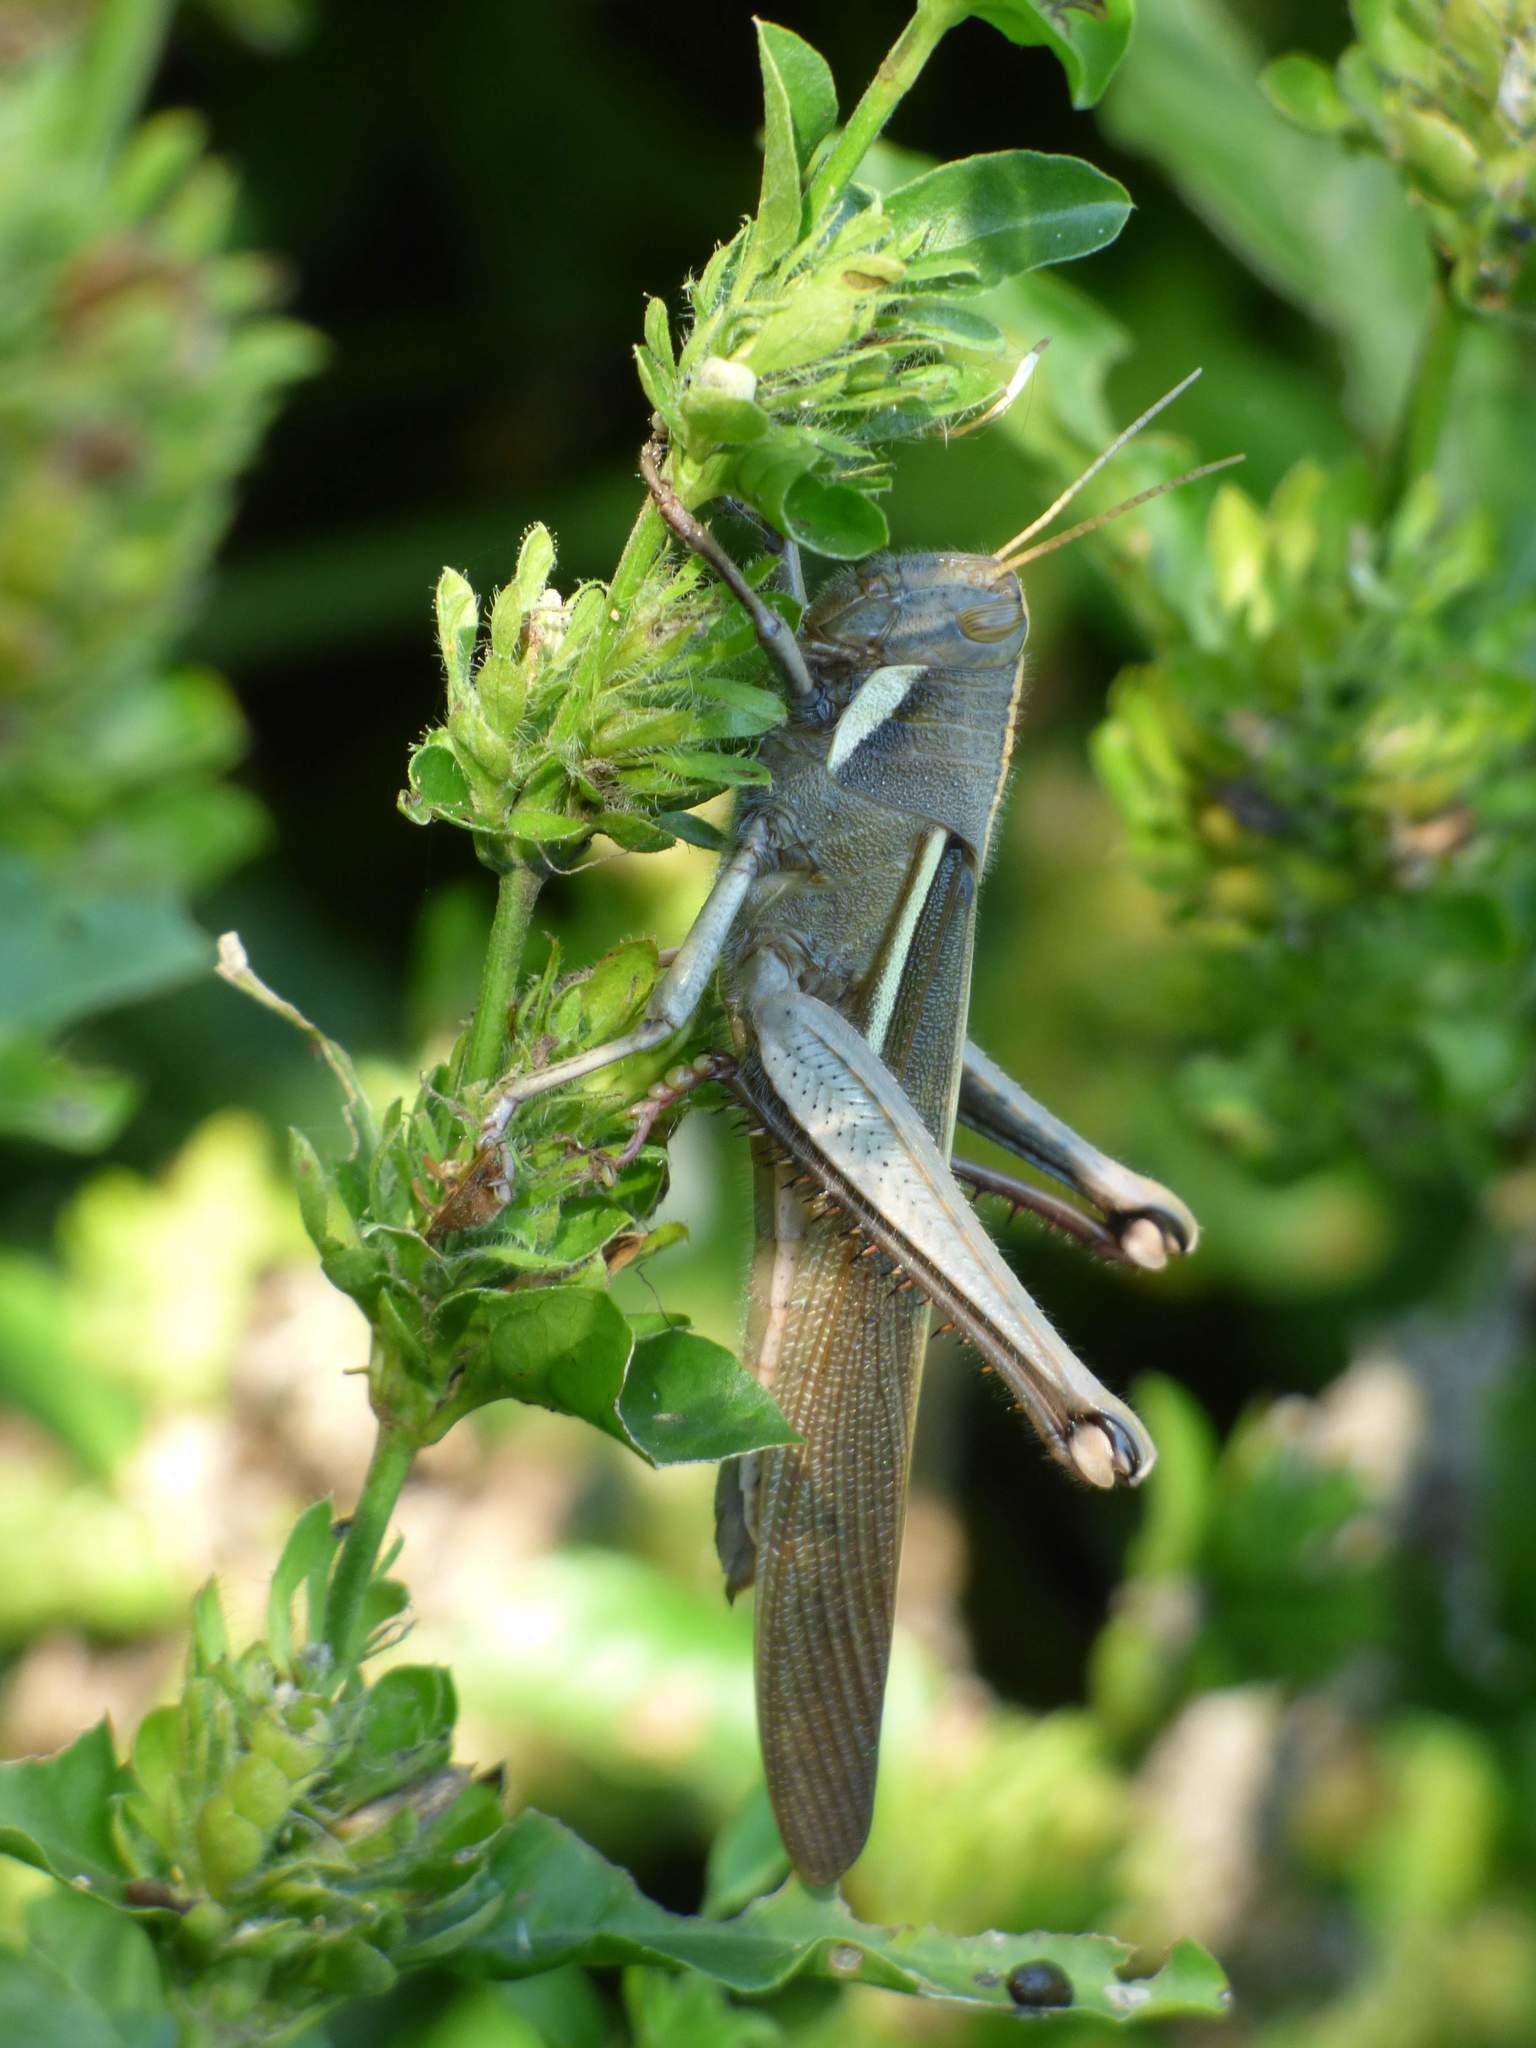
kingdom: Animalia
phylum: Arthropoda
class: Insecta
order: Orthoptera
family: Acrididae
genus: Schistocerca
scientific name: Schistocerca flavofasciata
